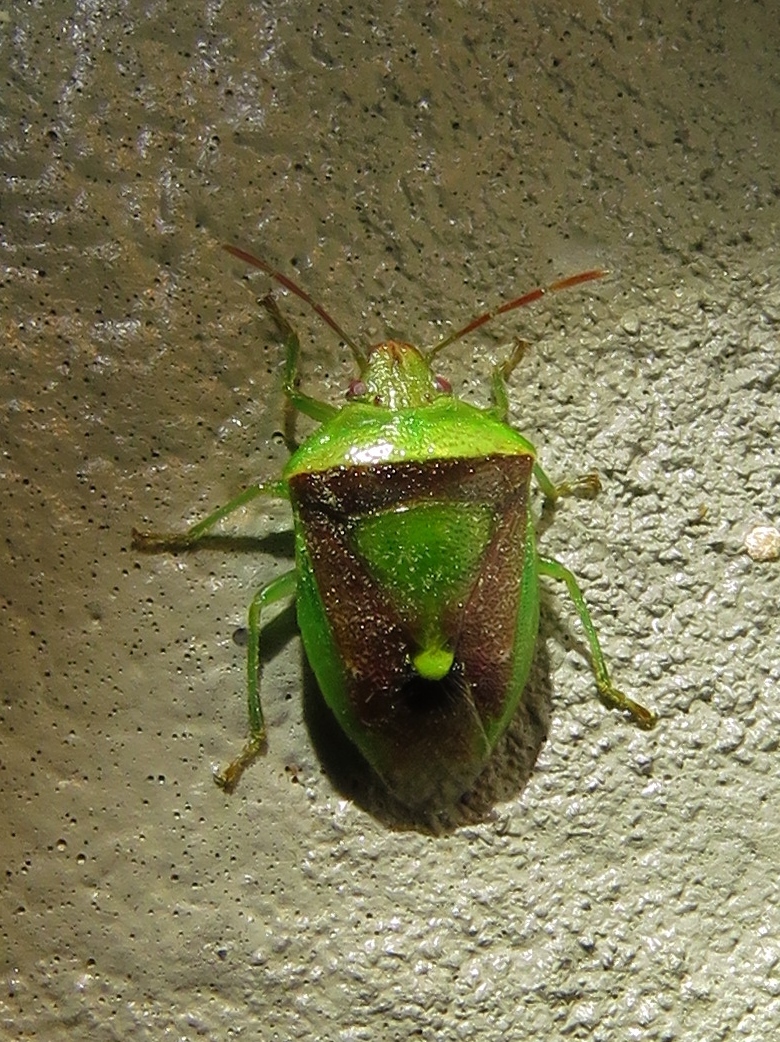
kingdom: Animalia
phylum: Arthropoda
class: Insecta
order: Hemiptera
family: Pentatomidae
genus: Banasa
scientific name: Banasa dimidiata
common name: Green burgundy stink bug
